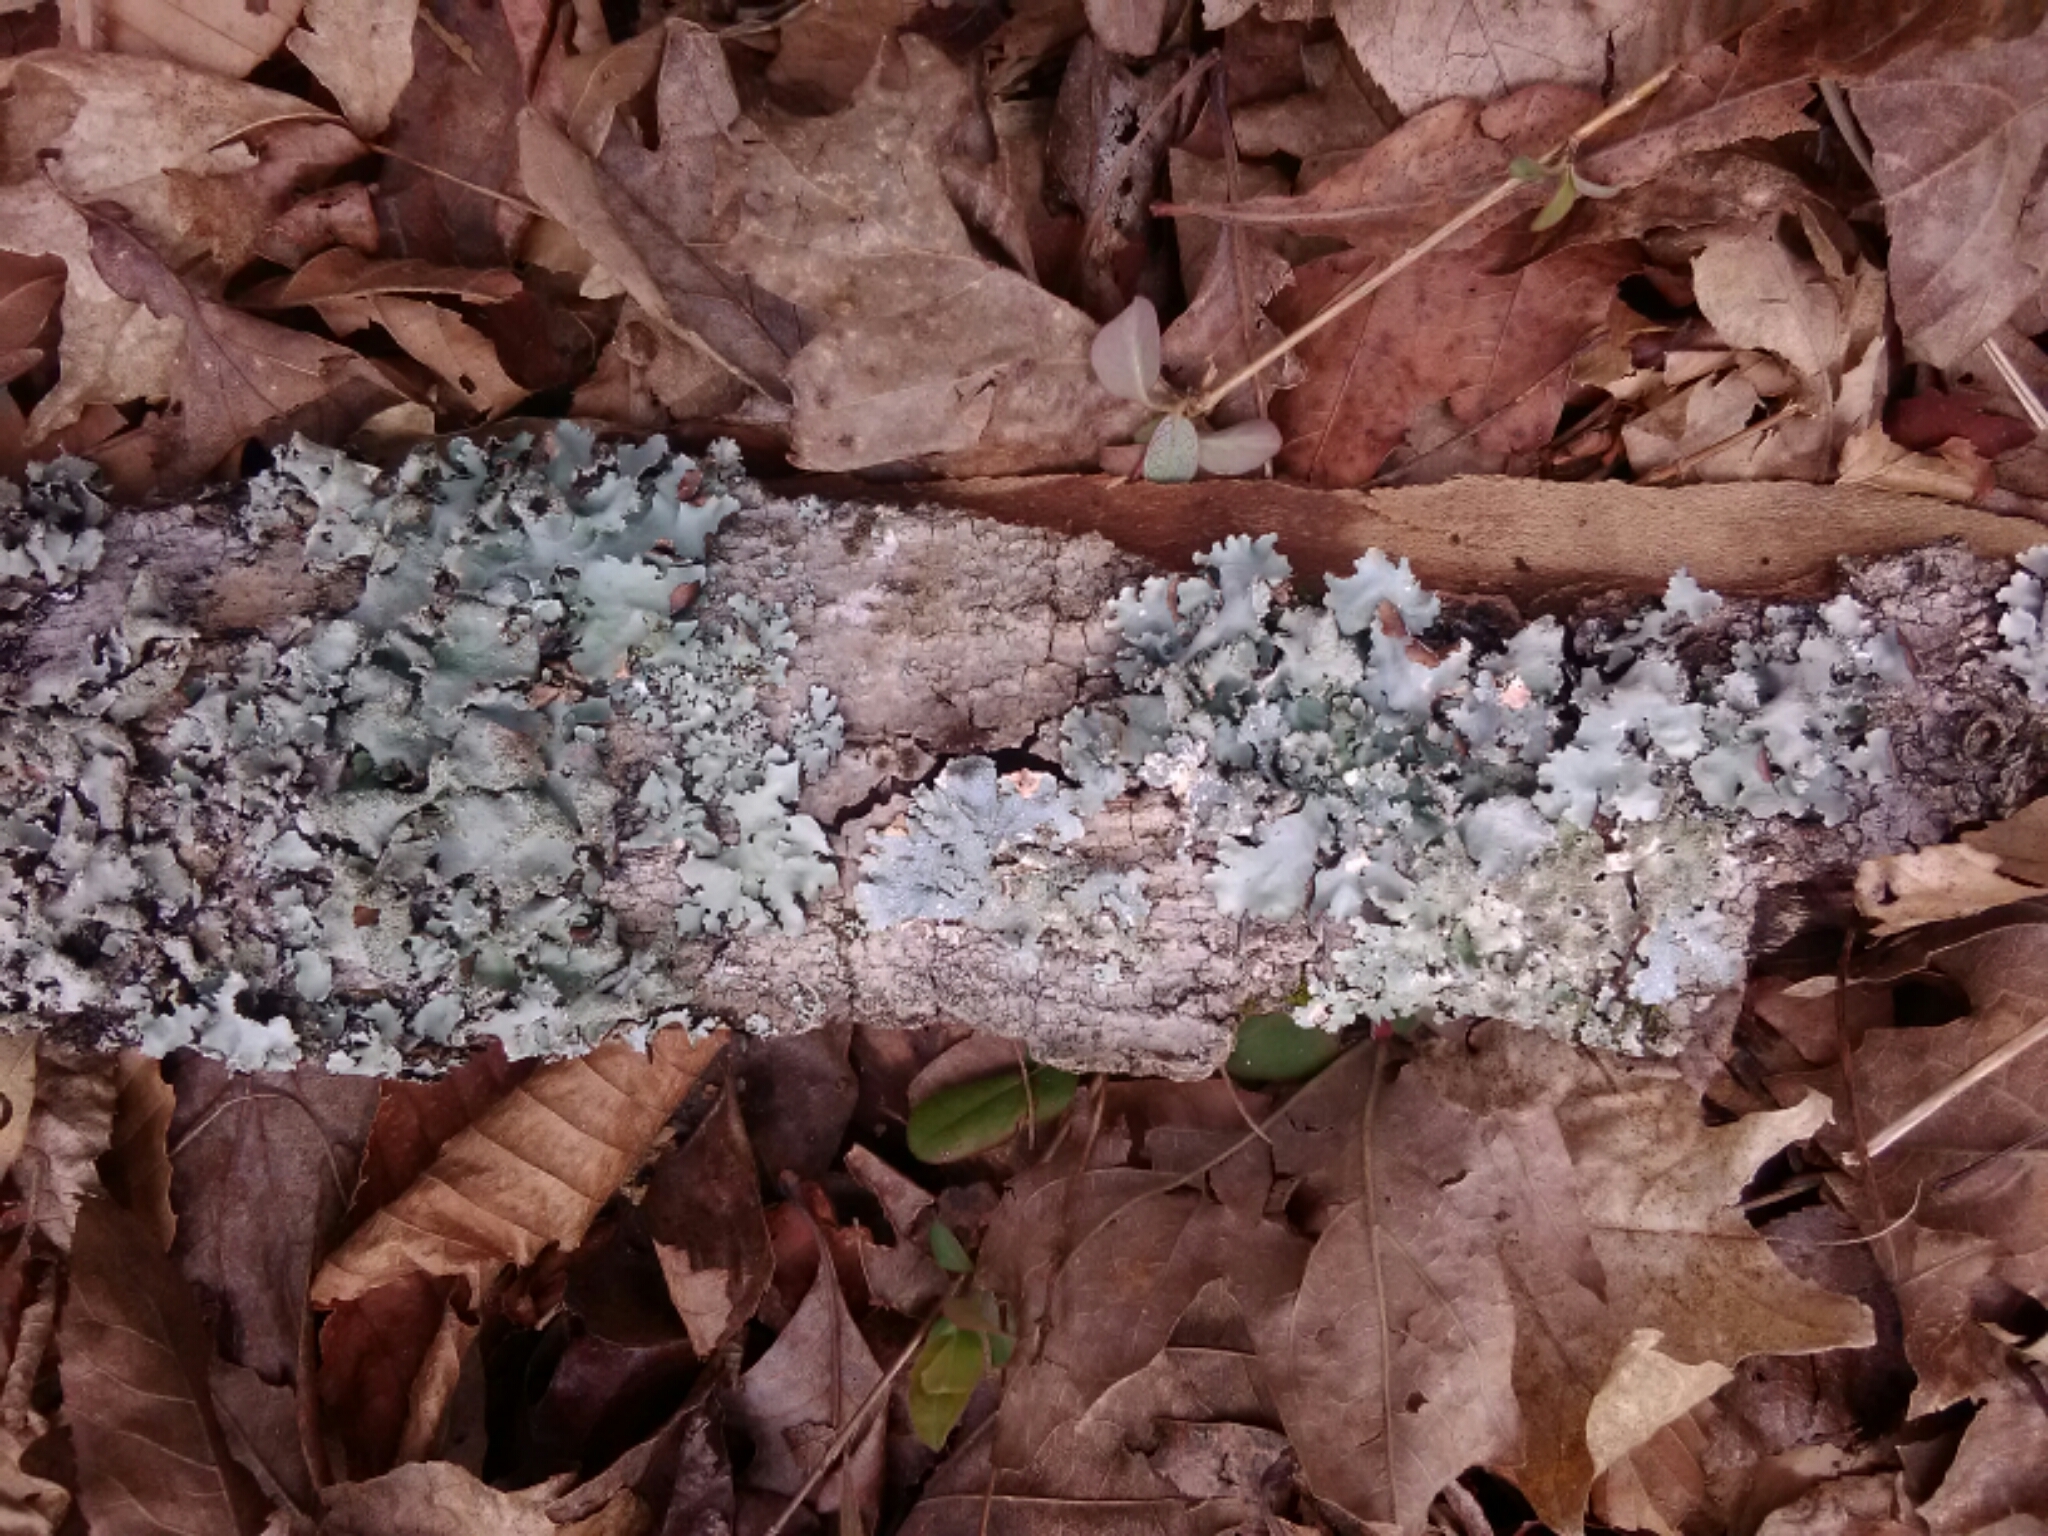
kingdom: Fungi
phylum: Ascomycota
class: Lecanoromycetes
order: Lecanorales
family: Parmeliaceae
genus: Parmelia
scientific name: Parmelia sulcata
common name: Netted shield lichen
